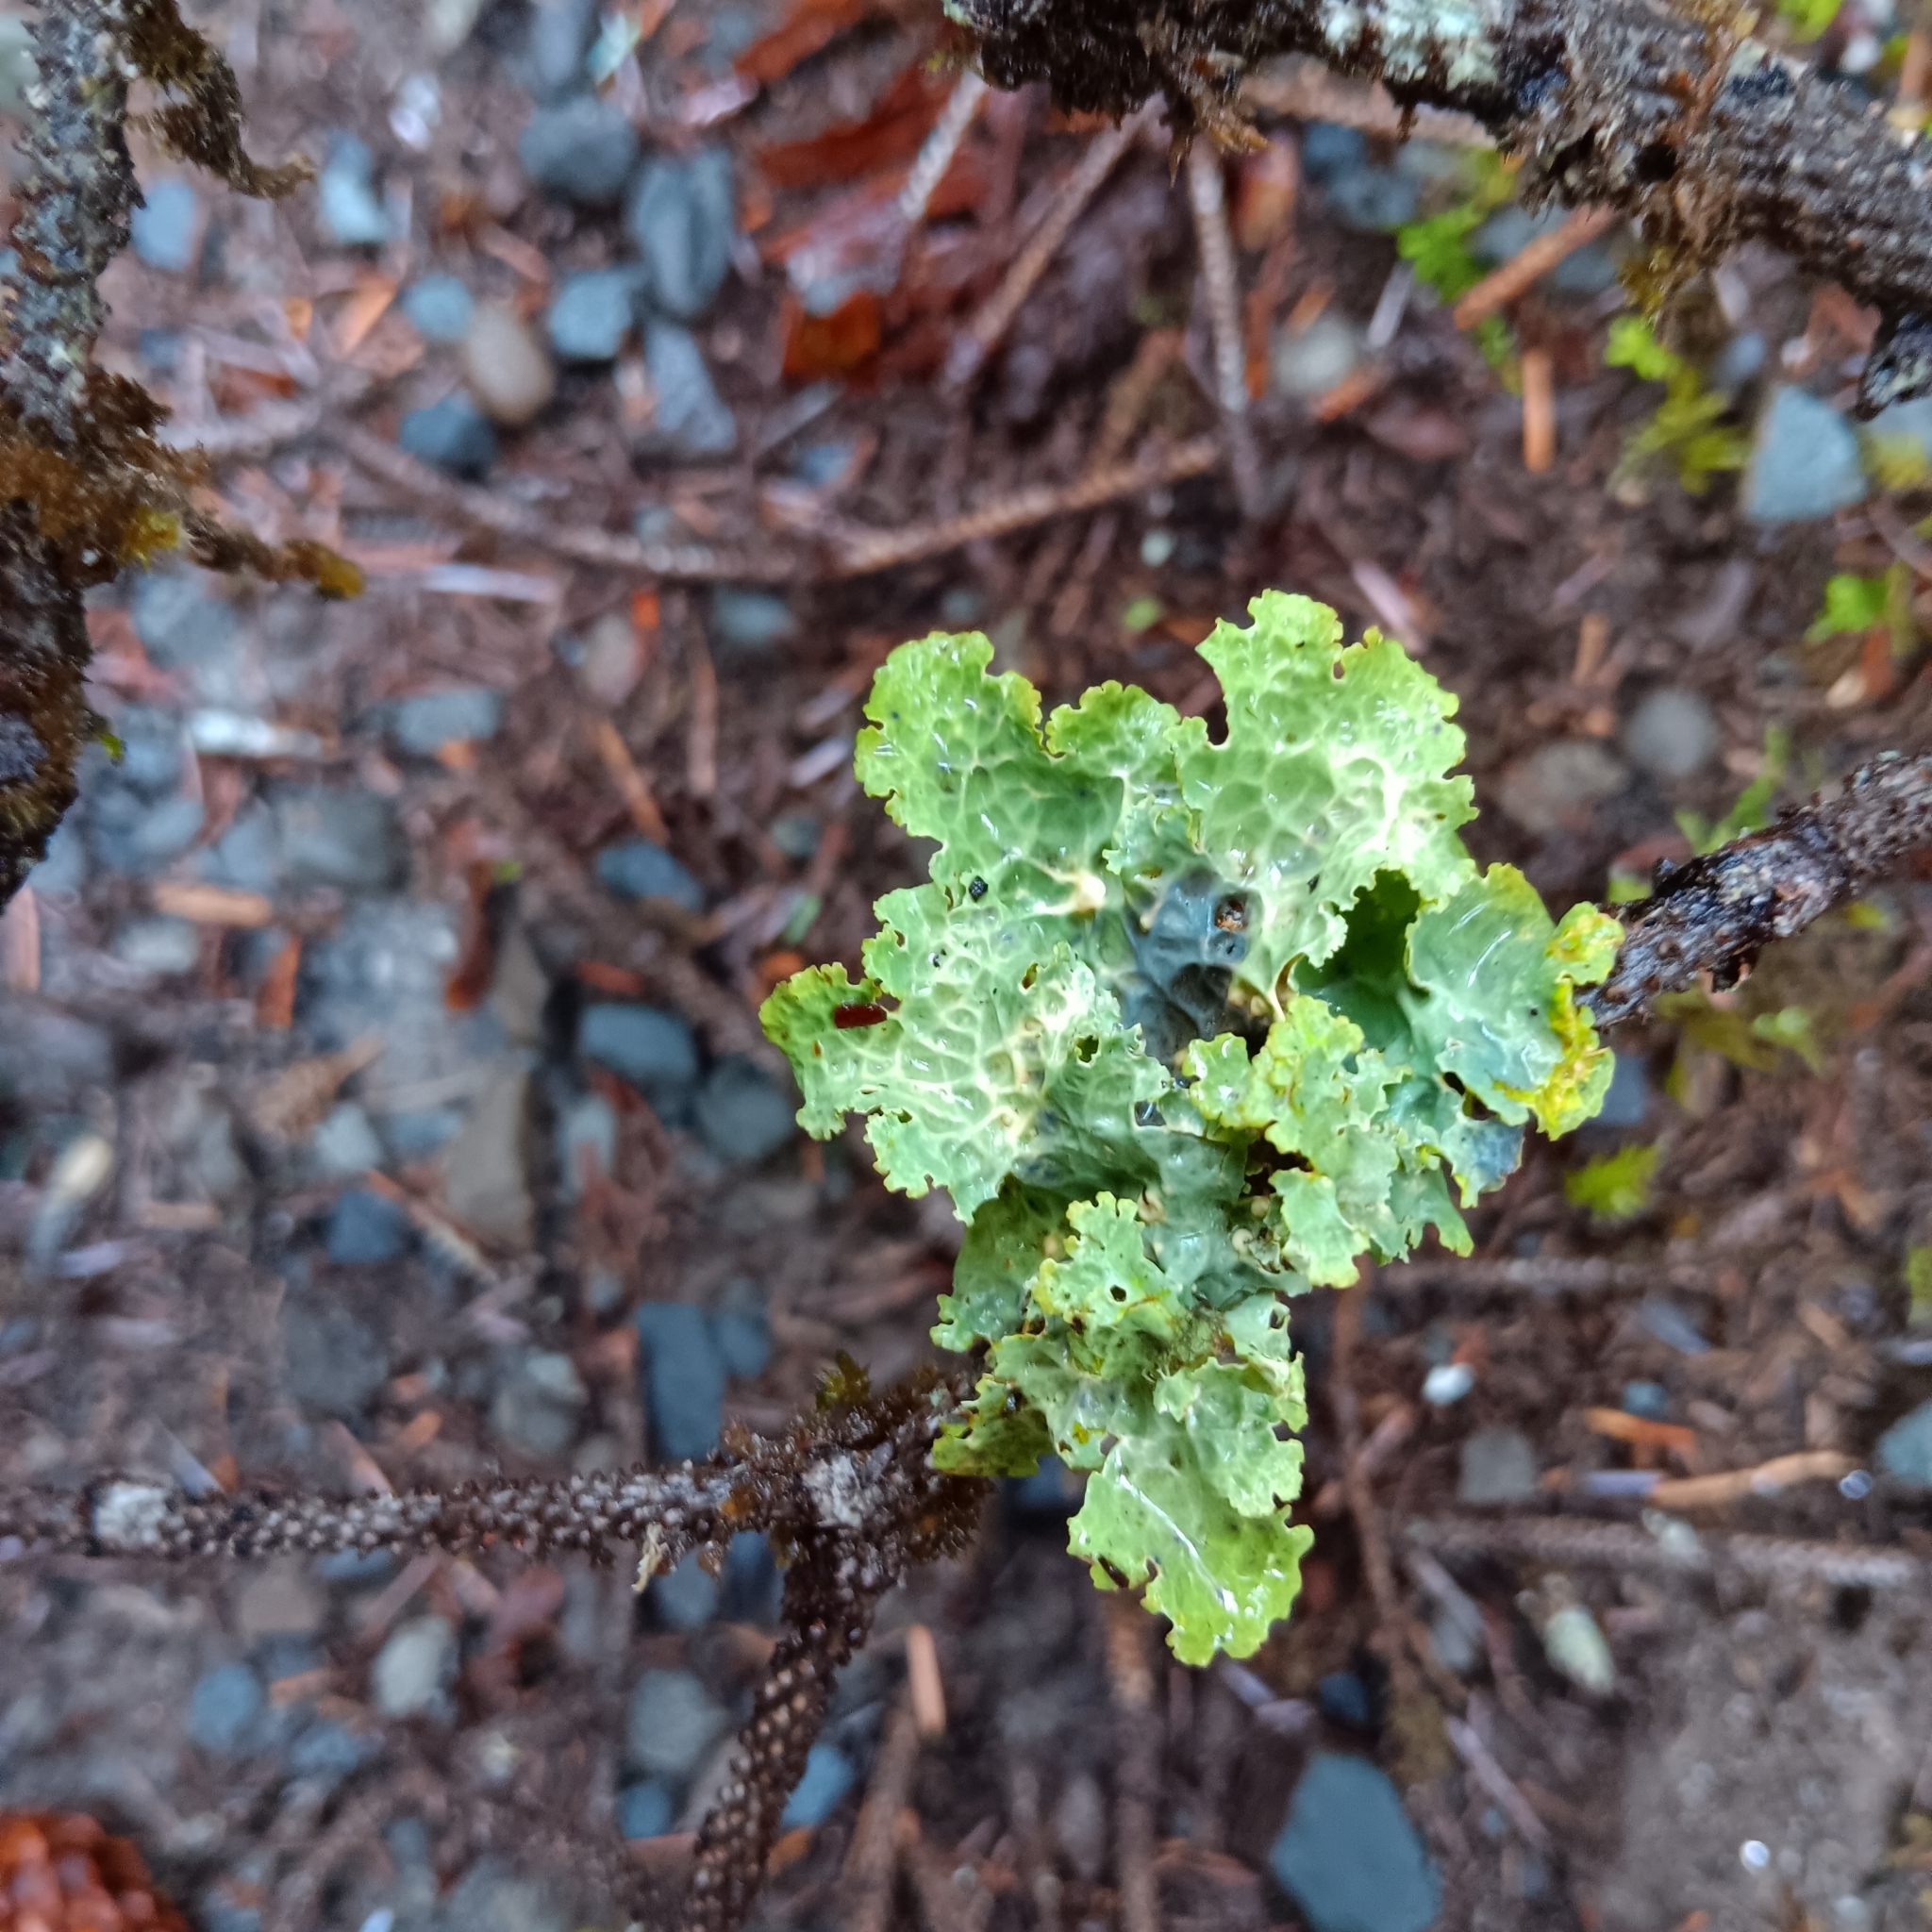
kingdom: Fungi
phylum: Ascomycota
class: Lecanoromycetes
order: Peltigerales
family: Lobariaceae
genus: Lobaria
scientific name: Lobaria oregana
